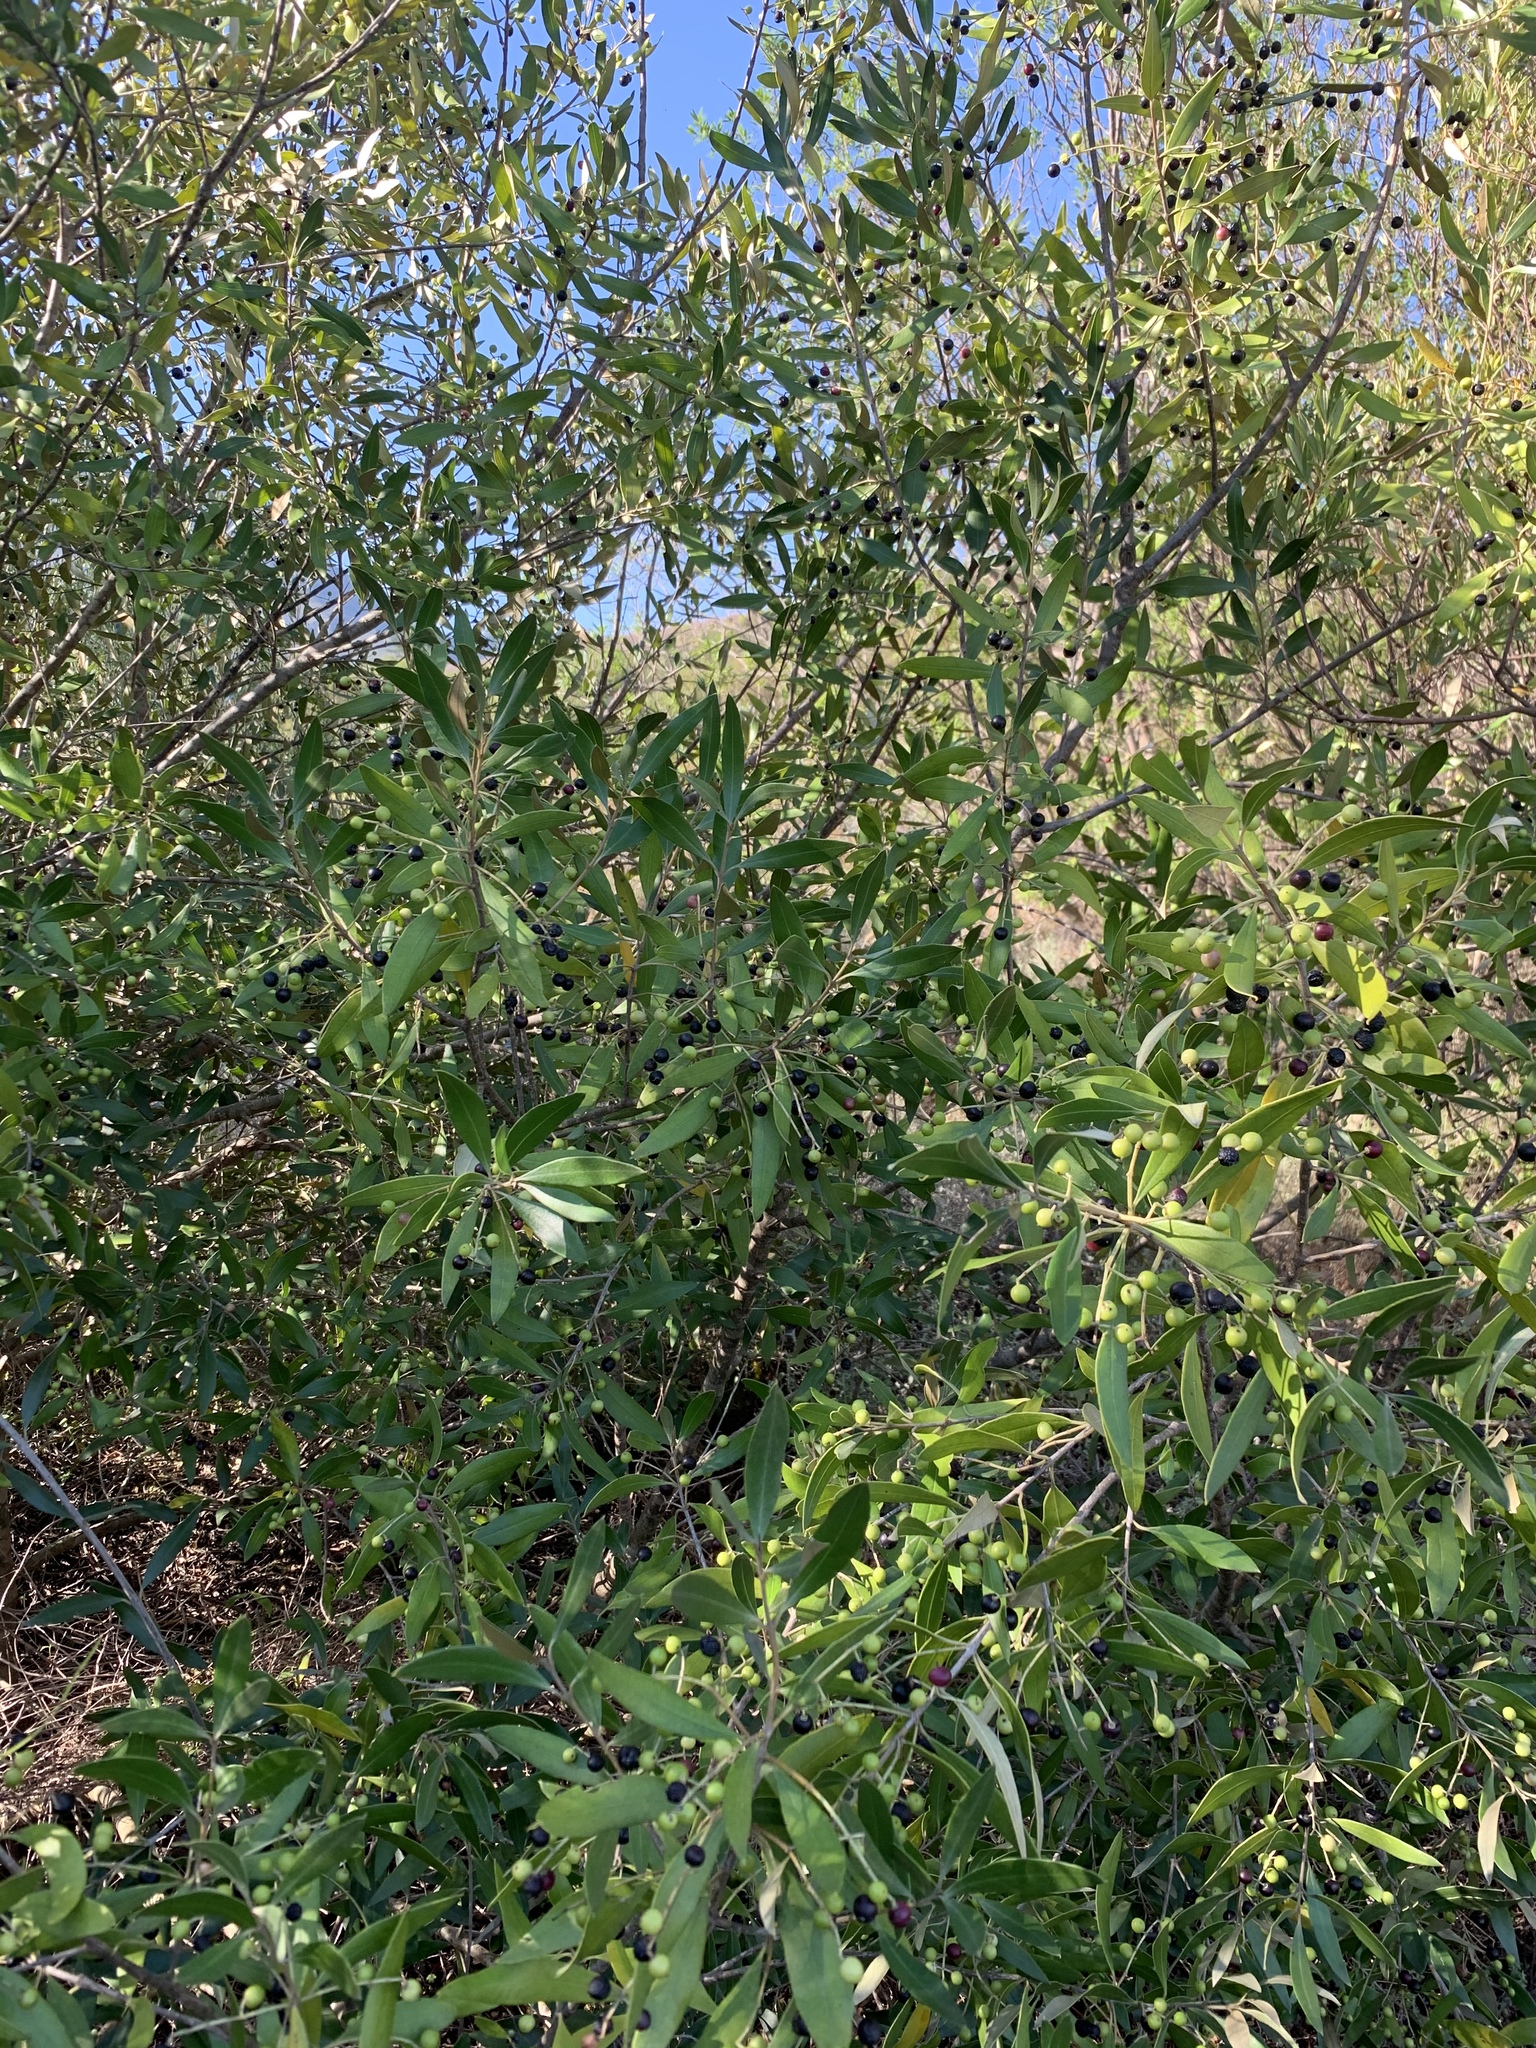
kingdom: Plantae
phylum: Tracheophyta
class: Magnoliopsida
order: Lamiales
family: Oleaceae
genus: Olea
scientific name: Olea europaea
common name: Olive
